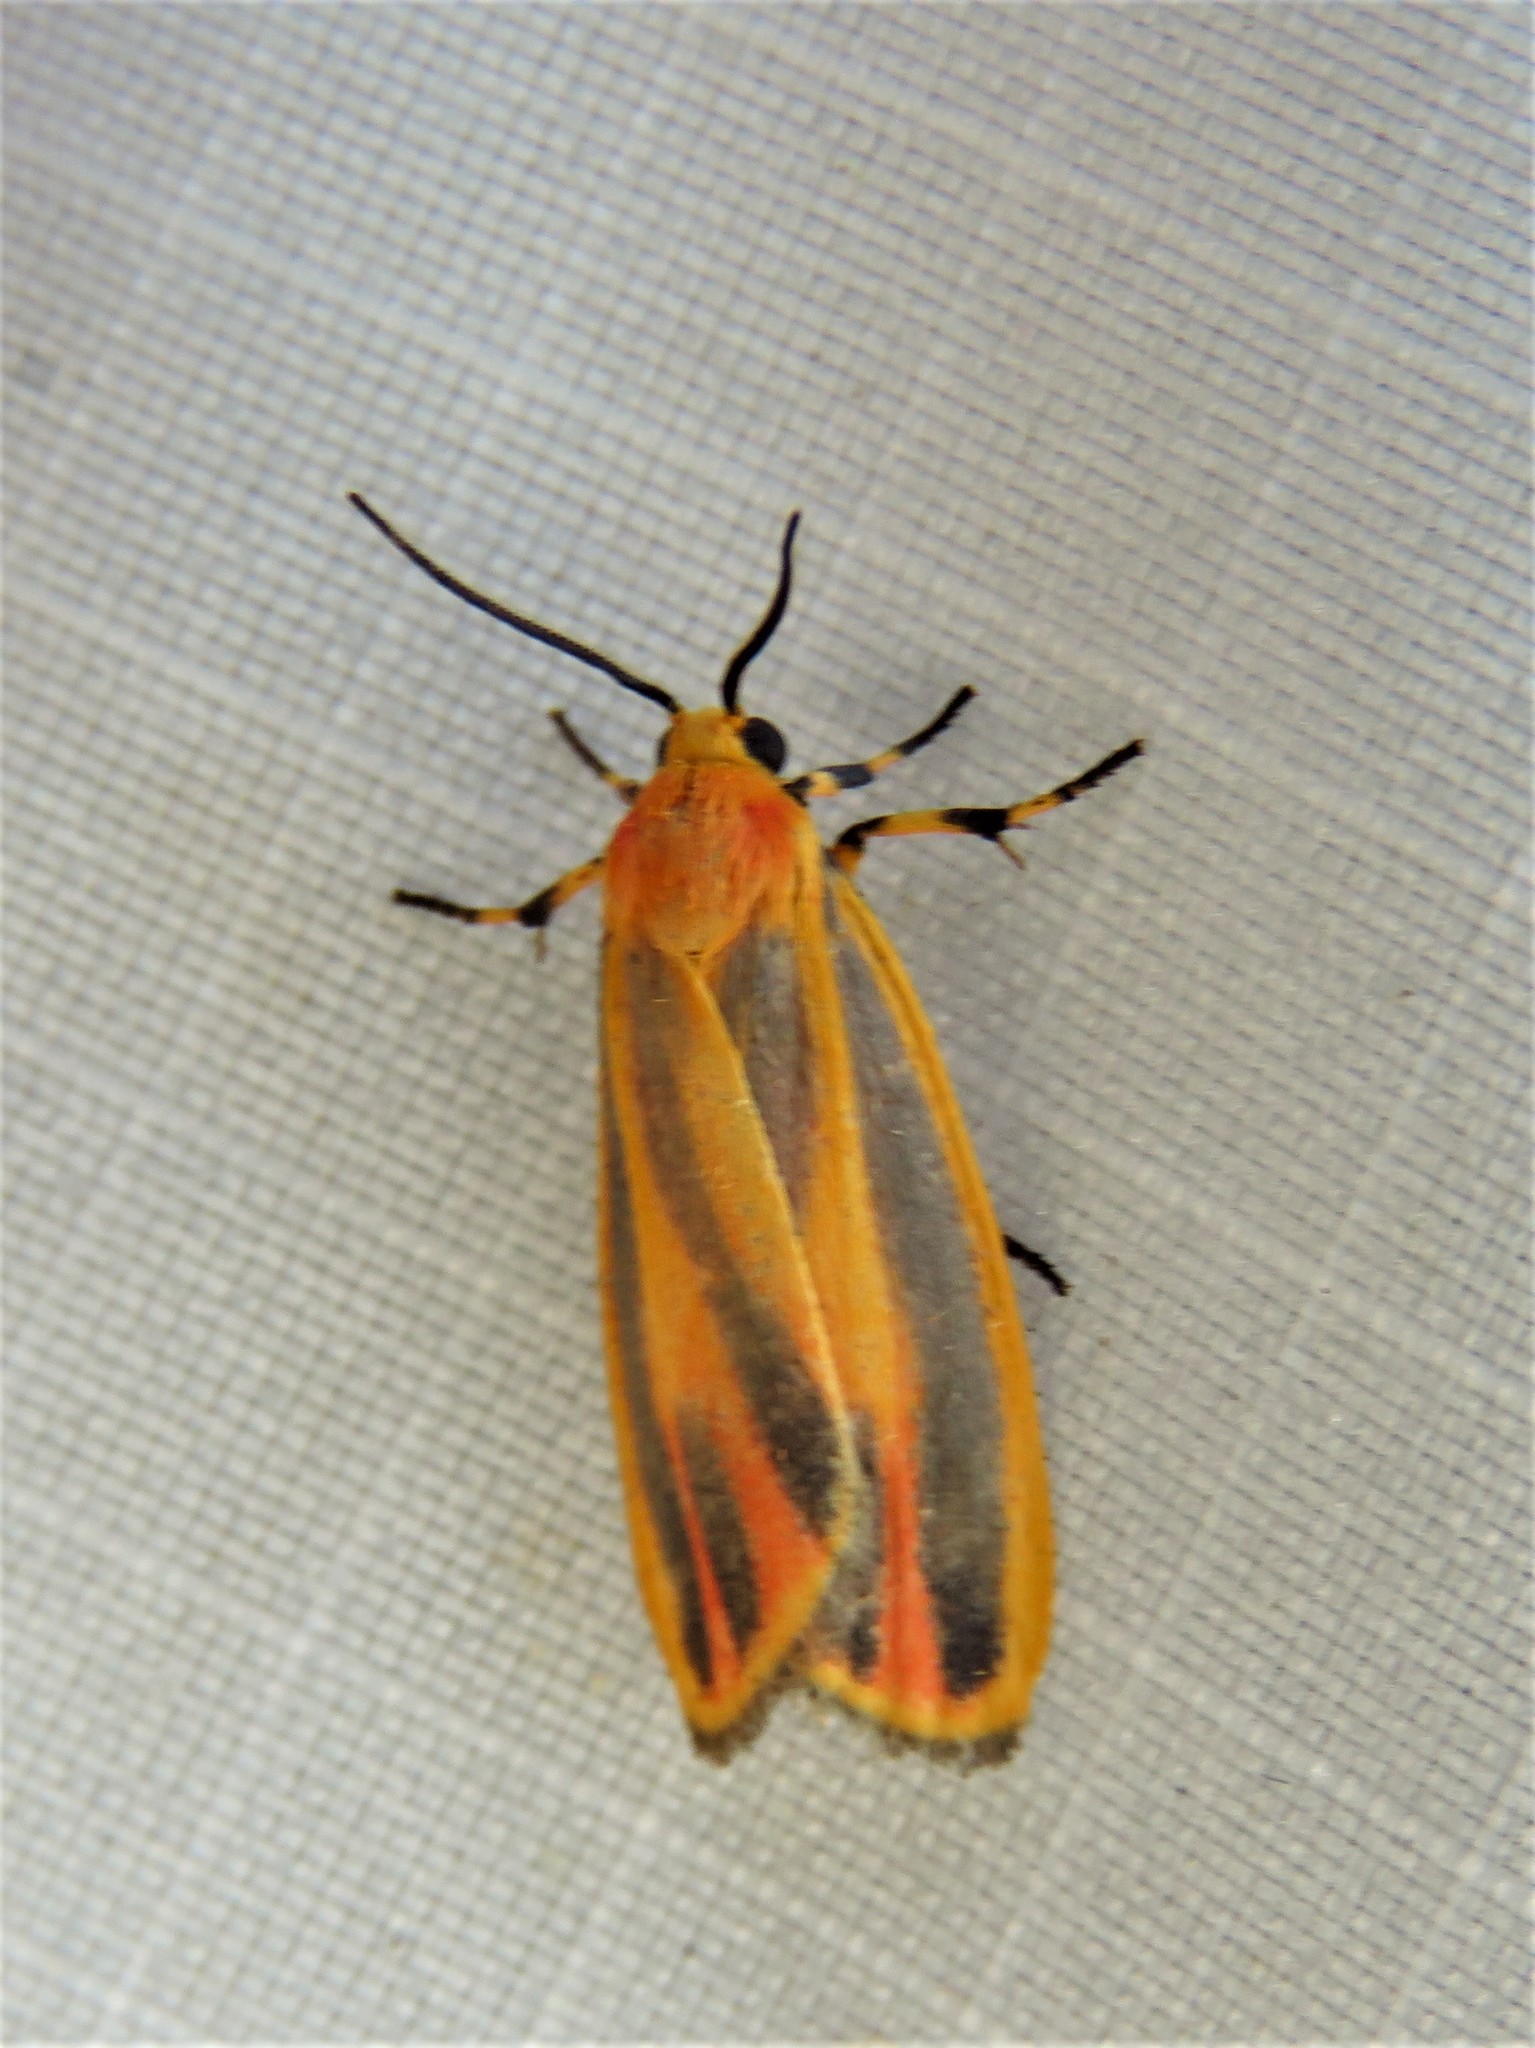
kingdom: Animalia
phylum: Arthropoda
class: Insecta
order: Lepidoptera
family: Erebidae
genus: Hypoprepia
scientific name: Hypoprepia fucosa
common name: Painted lichen moth
